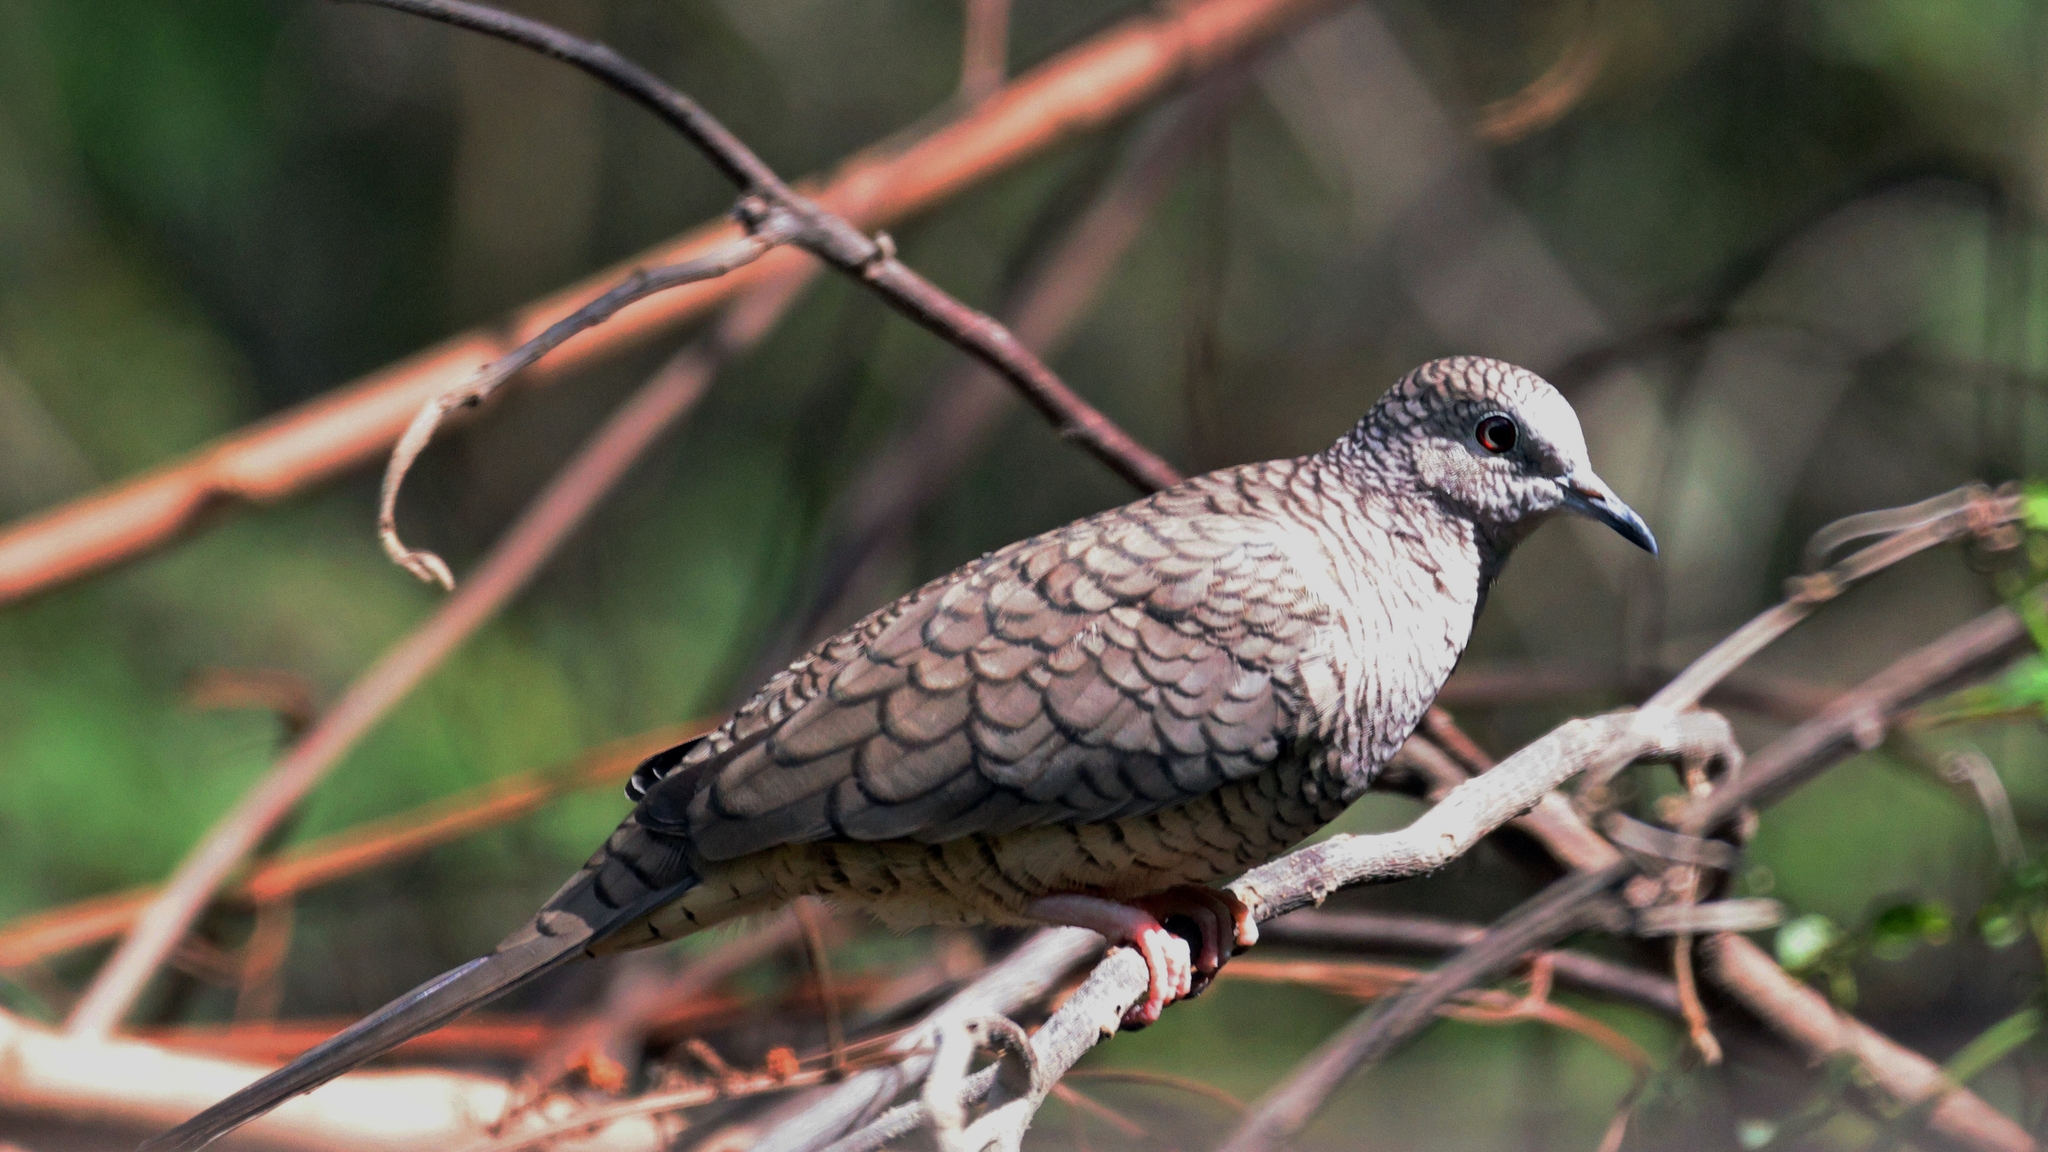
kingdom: Animalia
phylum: Chordata
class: Aves
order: Columbiformes
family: Columbidae
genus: Columbina
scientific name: Columbina inca
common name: Inca dove
